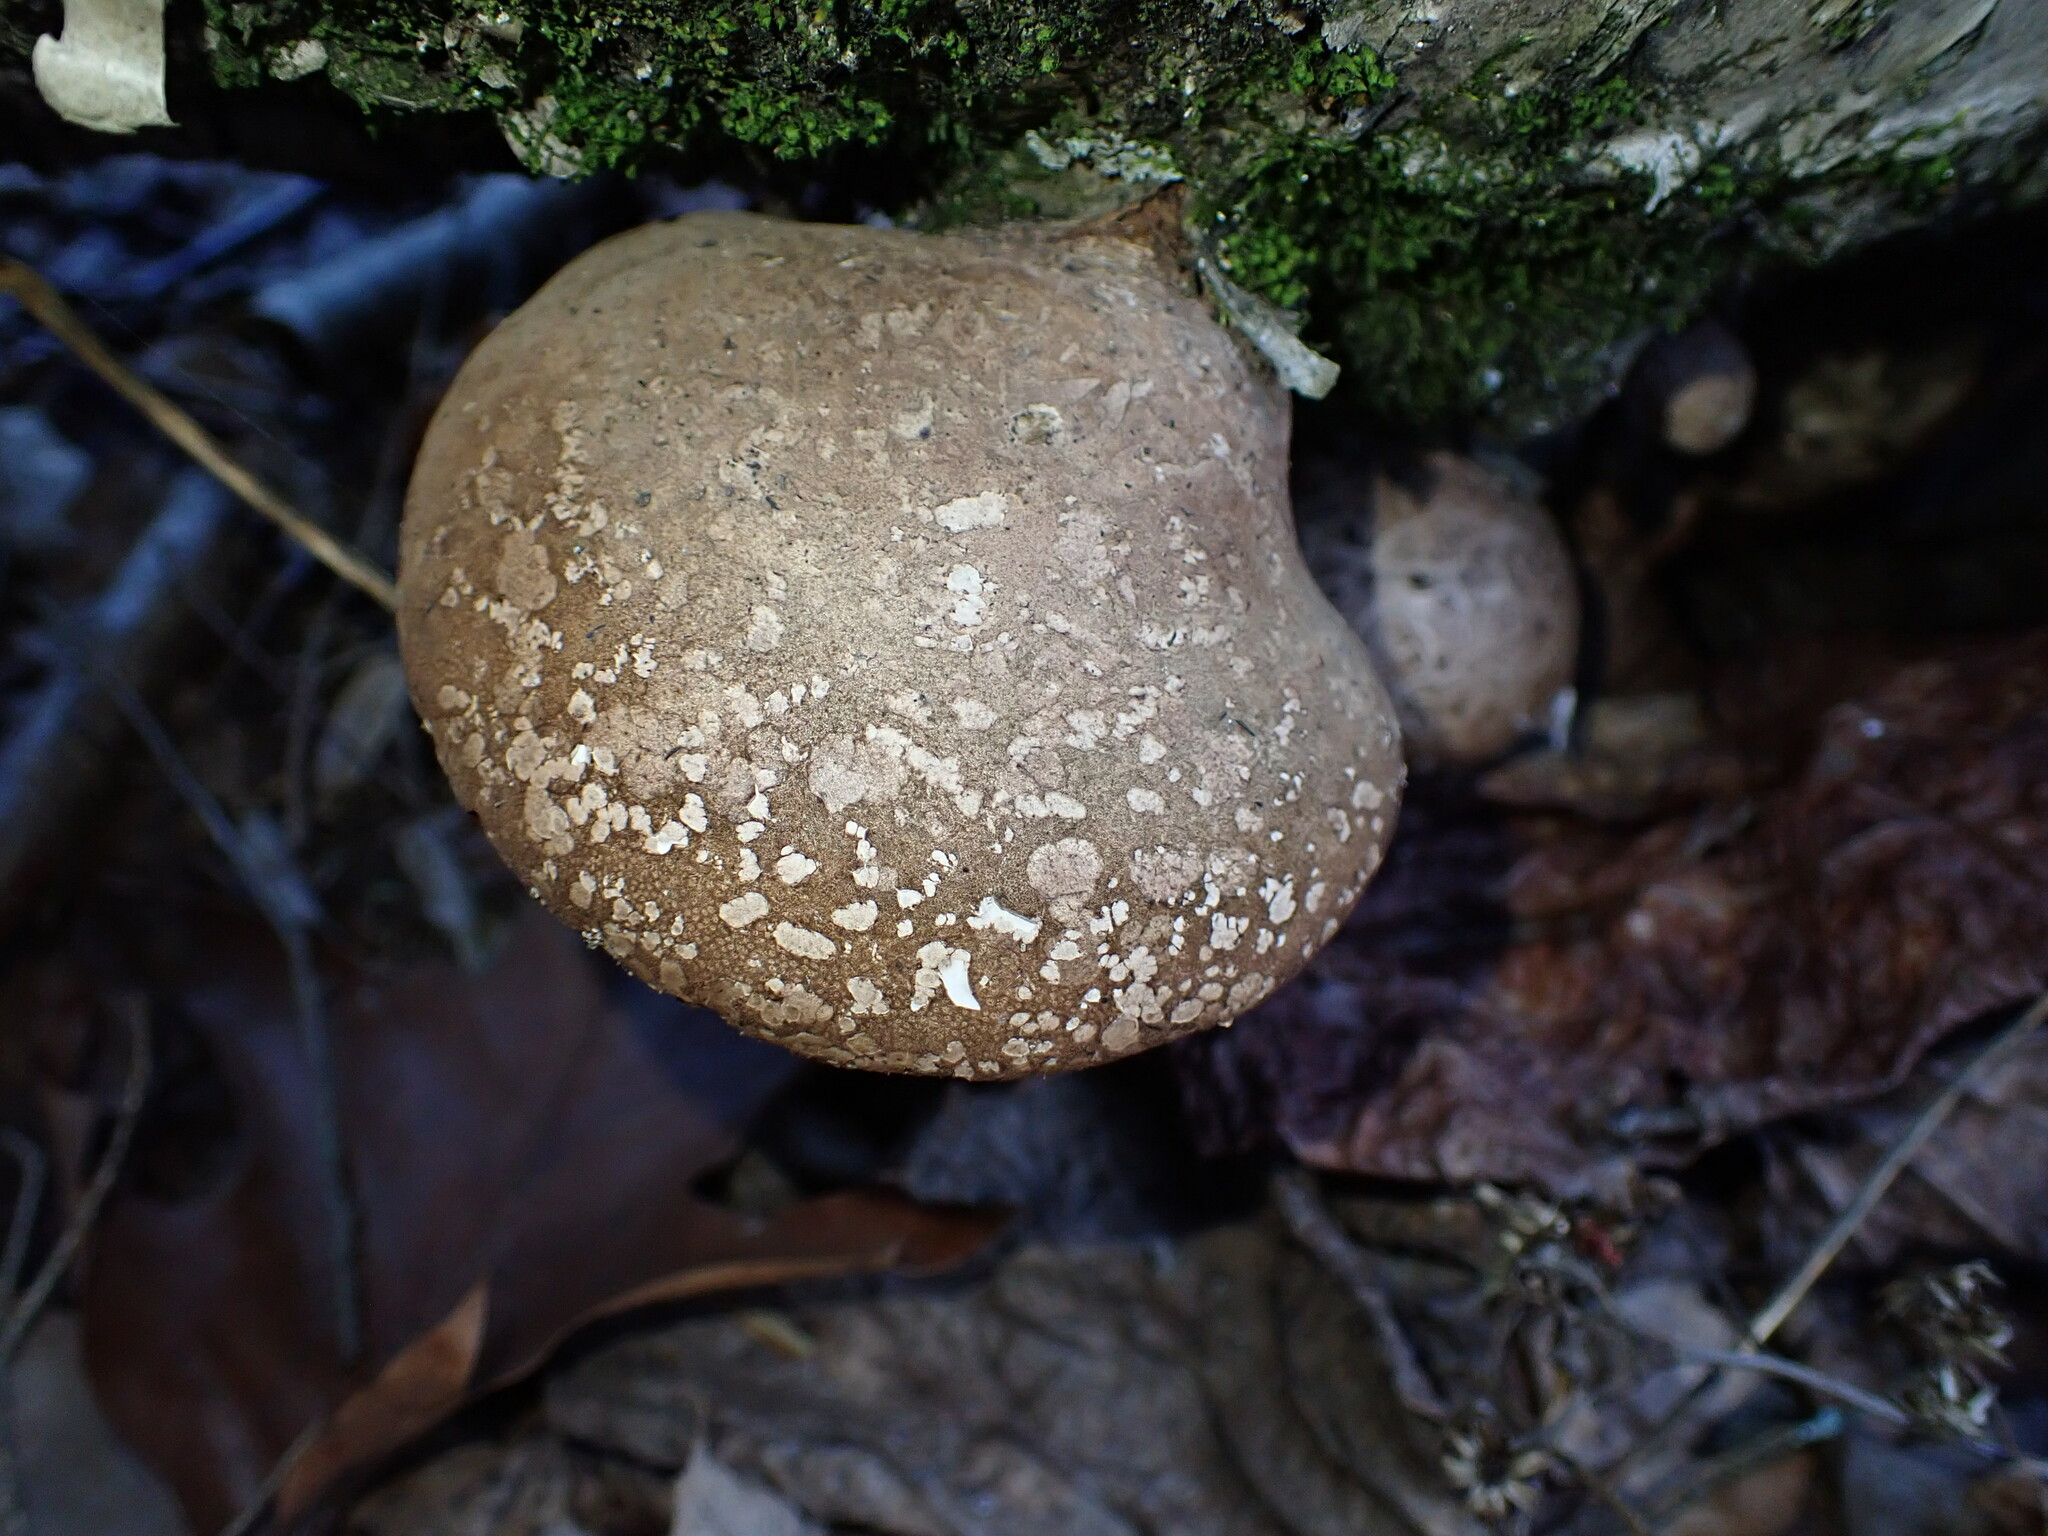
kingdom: Fungi
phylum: Basidiomycota
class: Agaricomycetes
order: Polyporales
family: Fomitopsidaceae
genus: Fomitopsis
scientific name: Fomitopsis betulina
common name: Birch polypore
